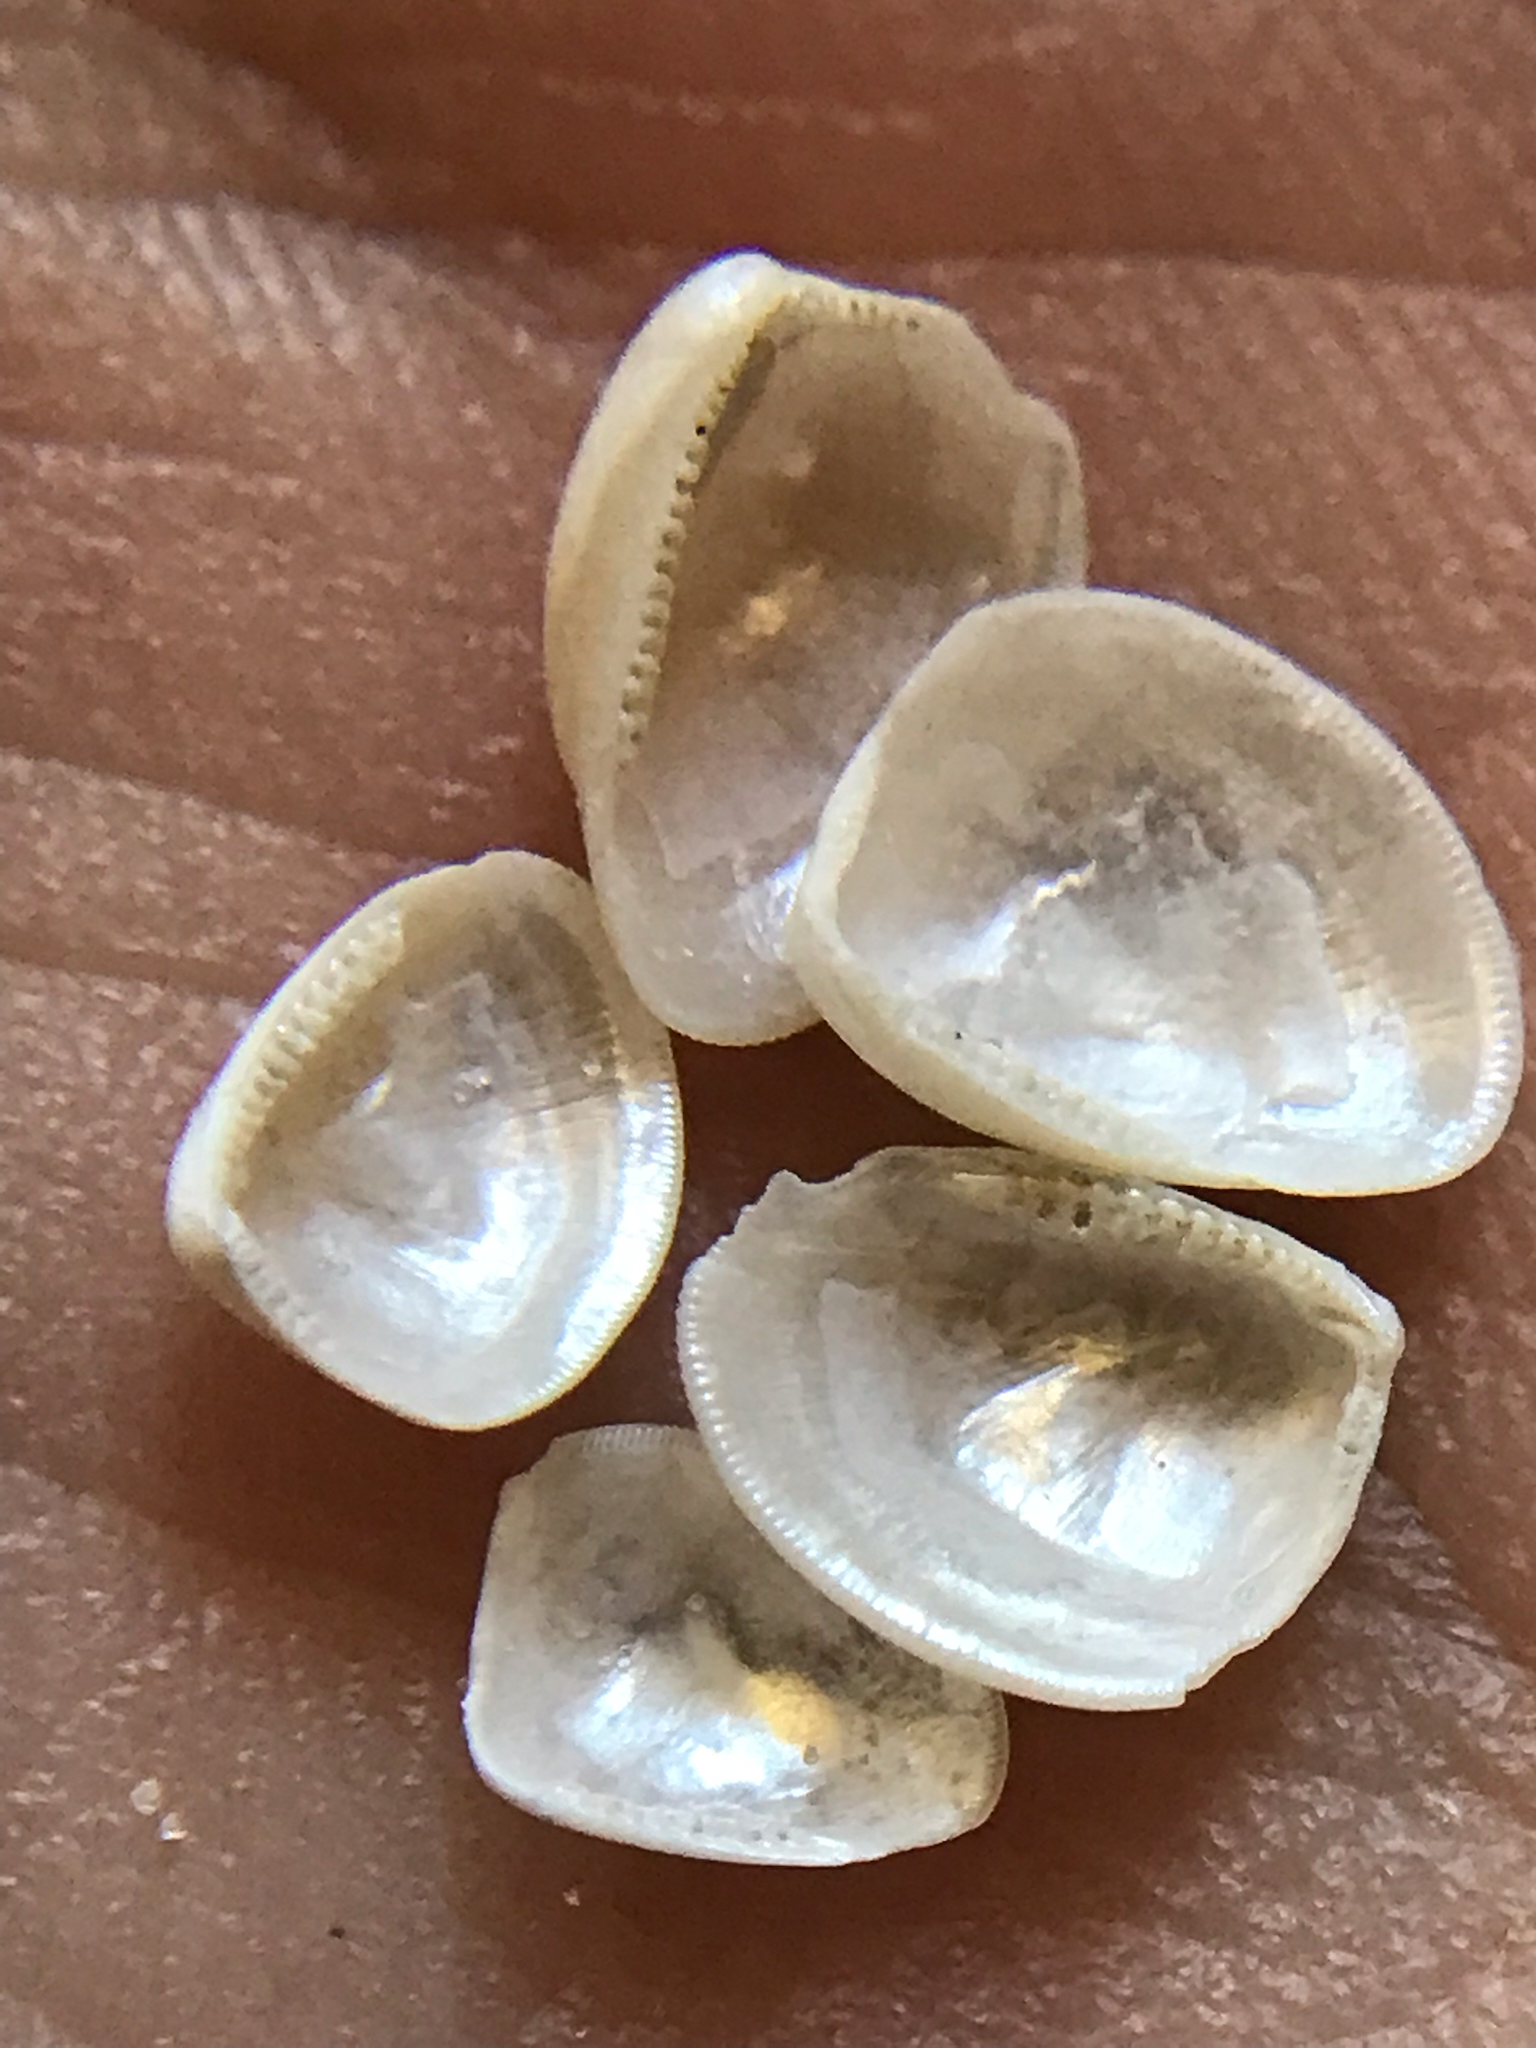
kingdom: Animalia
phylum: Mollusca
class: Bivalvia
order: Nuculida
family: Nuculidae
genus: Nucula
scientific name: Nucula proxima
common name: Atlantic nut clam
